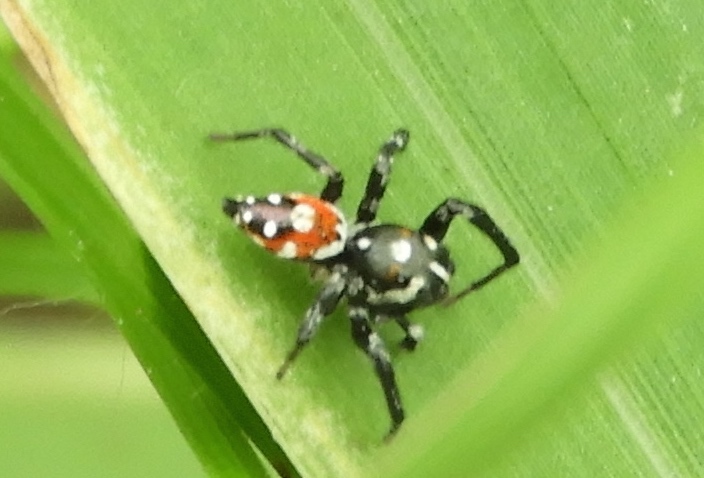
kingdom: Animalia
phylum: Arthropoda
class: Arachnida
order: Araneae
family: Salticidae
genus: Nycerella
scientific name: Nycerella delecta
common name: Jumping spiders
